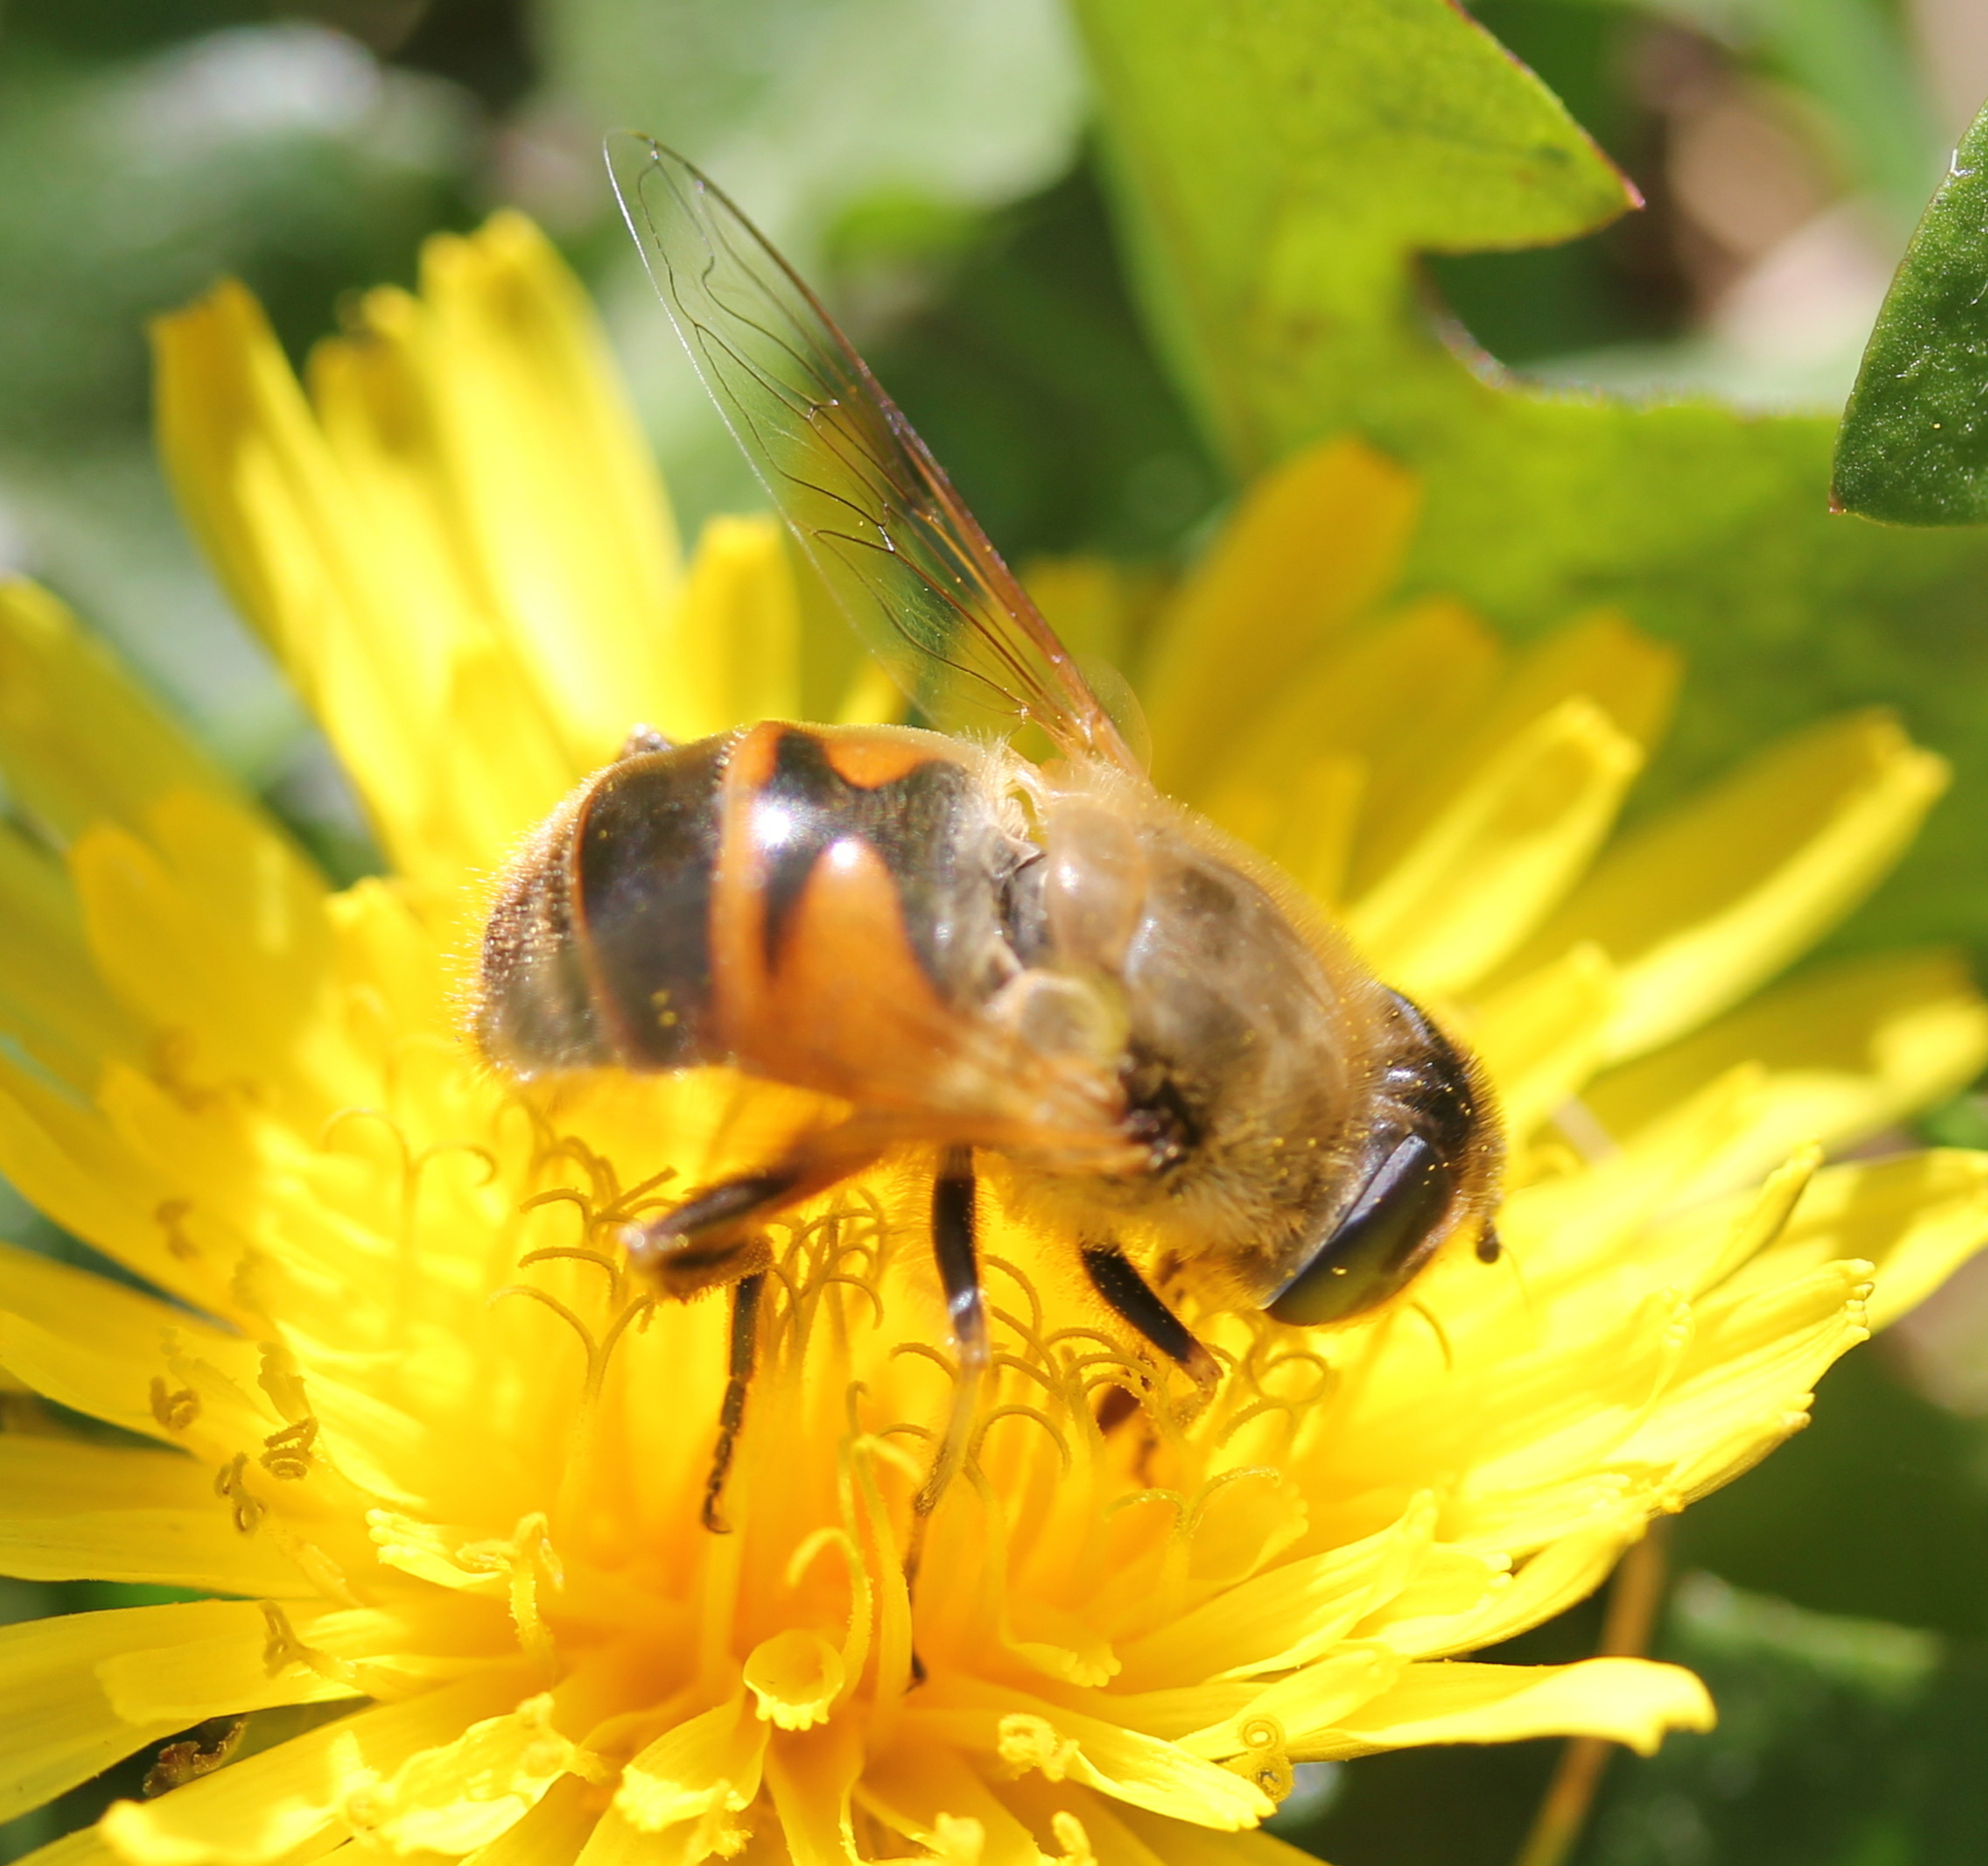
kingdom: Animalia
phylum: Arthropoda
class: Insecta
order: Diptera
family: Syrphidae
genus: Eristalis
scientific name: Eristalis tenax
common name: Drone fly
